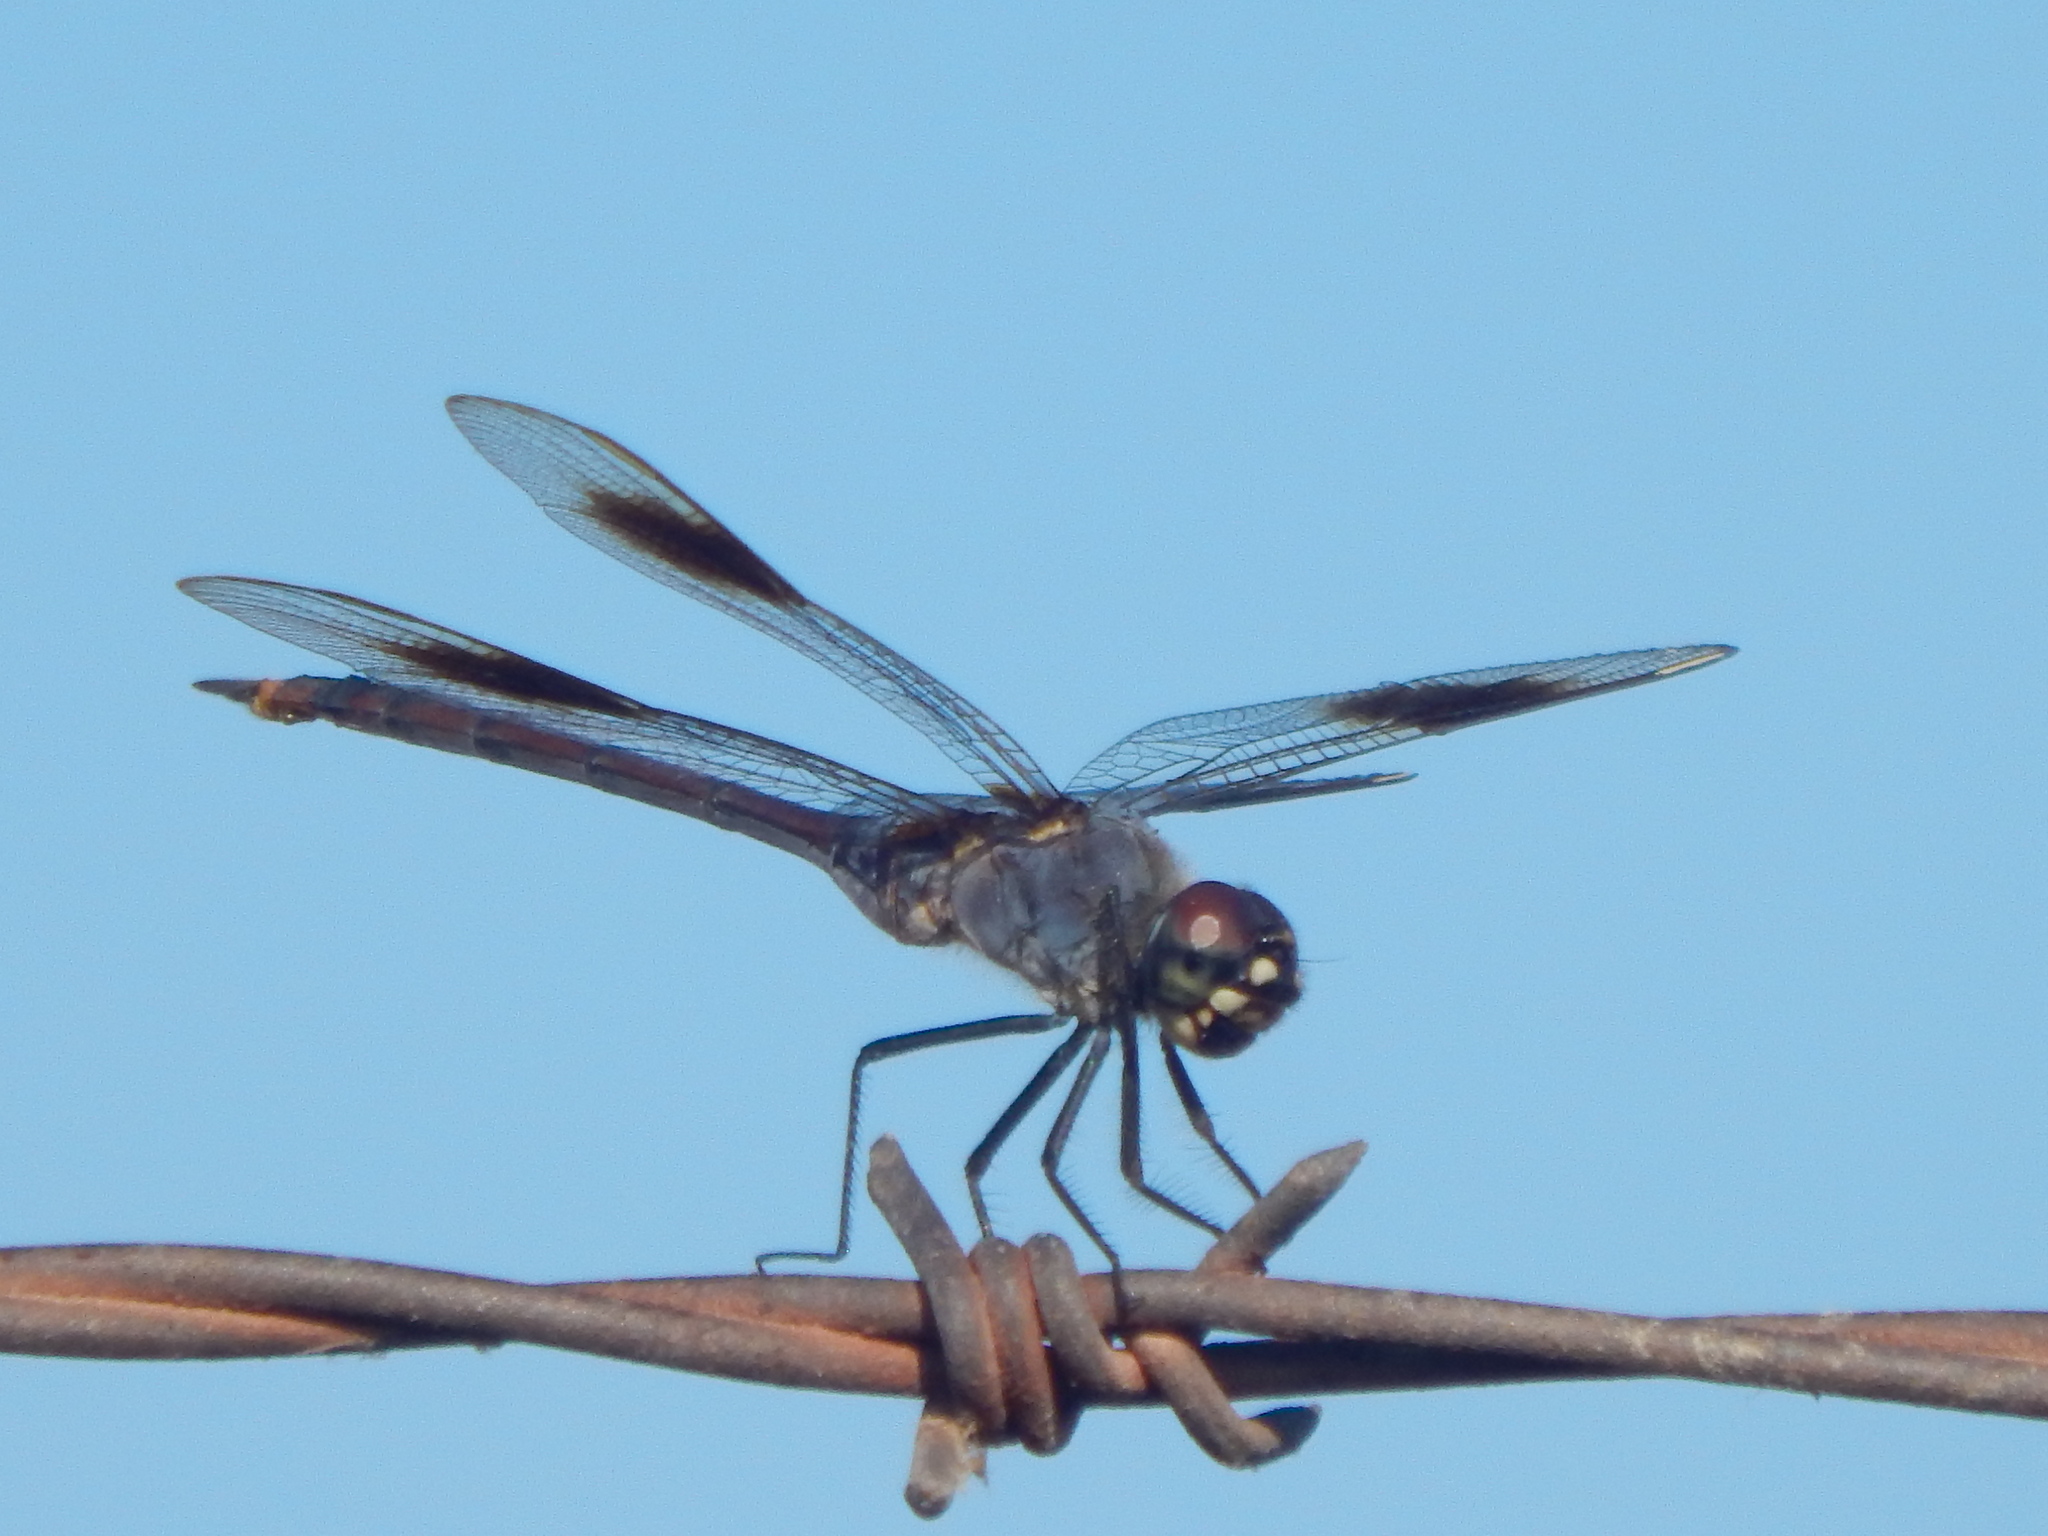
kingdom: Animalia
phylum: Arthropoda
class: Insecta
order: Odonata
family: Libellulidae
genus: Brachymesia
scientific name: Brachymesia gravida
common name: Four-spotted pennant
